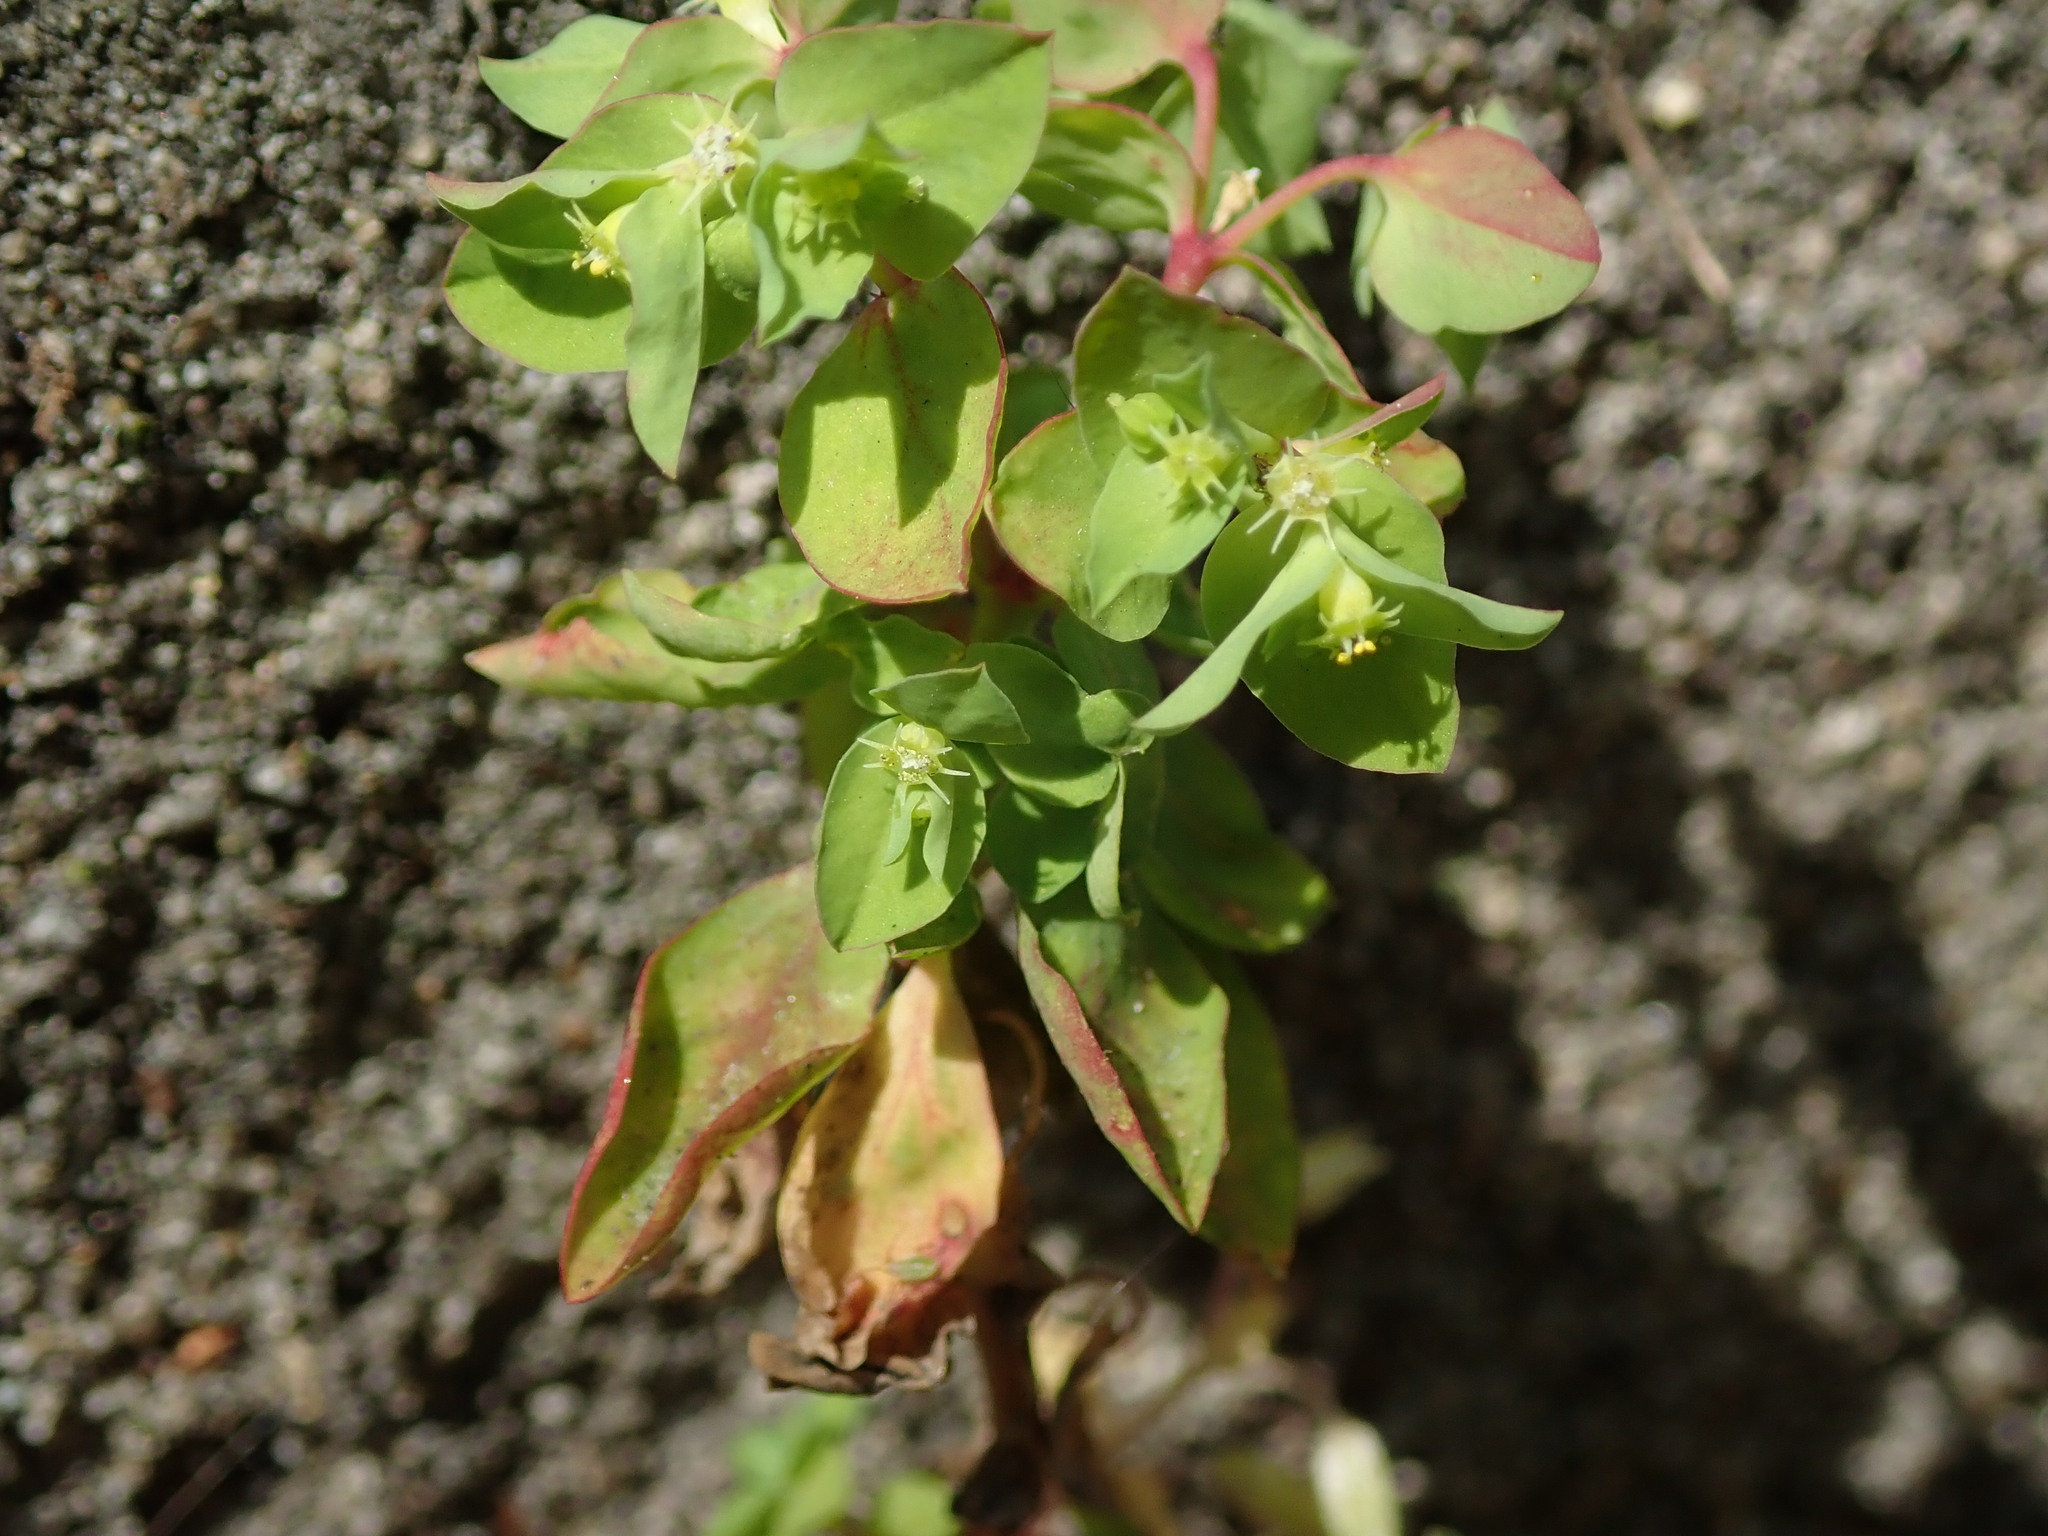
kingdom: Plantae
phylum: Tracheophyta
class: Magnoliopsida
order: Malpighiales
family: Euphorbiaceae
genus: Euphorbia
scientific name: Euphorbia peplus
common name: Petty spurge
